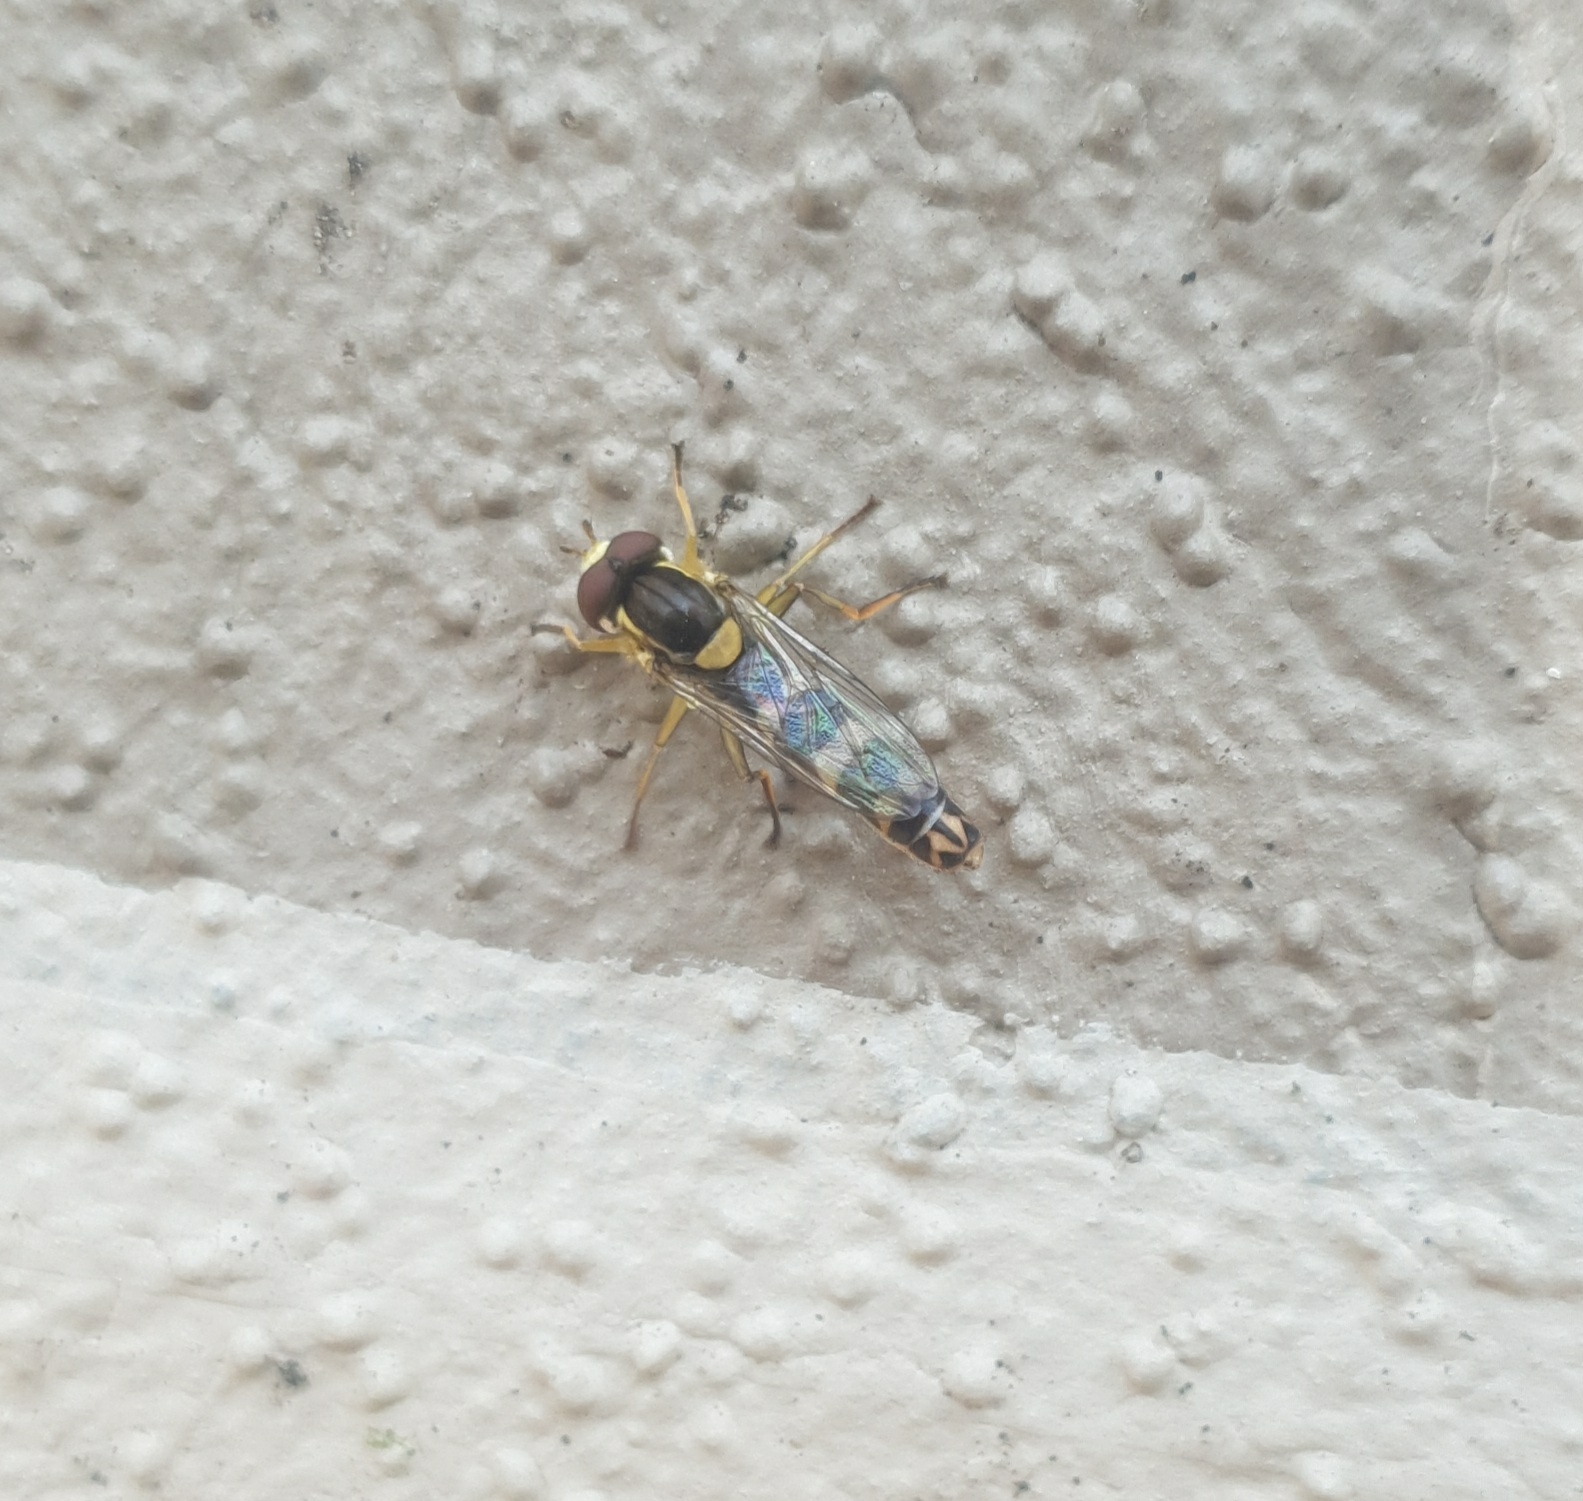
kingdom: Animalia
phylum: Arthropoda
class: Insecta
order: Diptera
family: Syrphidae
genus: Sphaerophoria
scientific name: Sphaerophoria scripta
